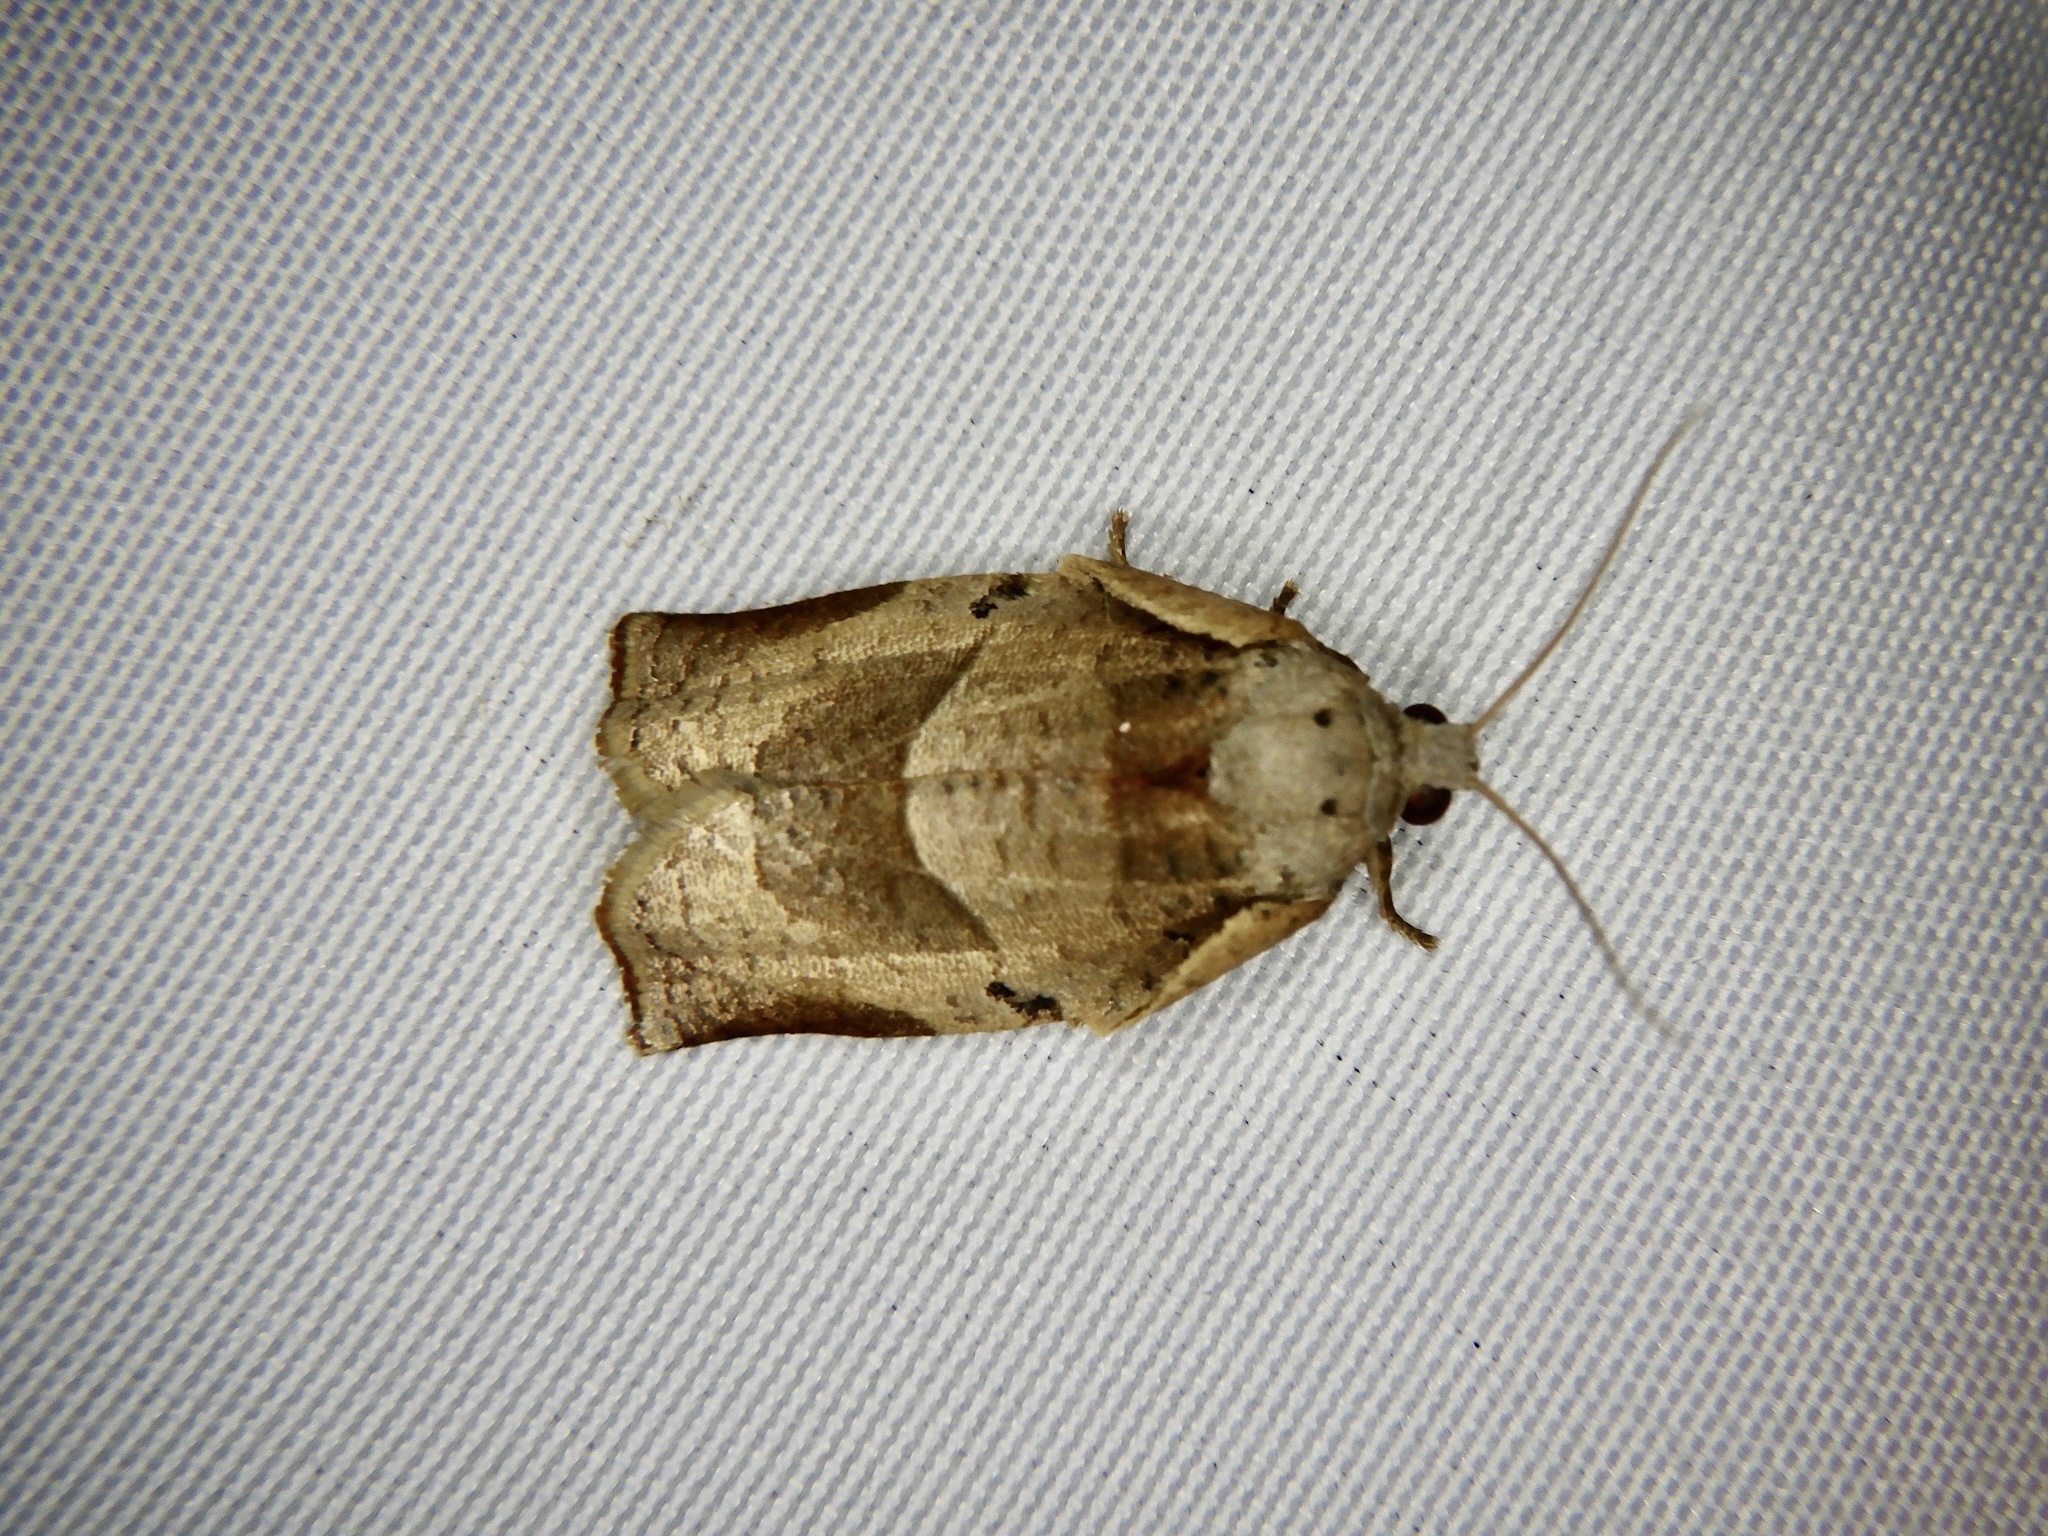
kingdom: Animalia
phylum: Arthropoda
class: Insecta
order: Lepidoptera
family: Tortricidae
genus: Homona
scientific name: Homona magnanima
